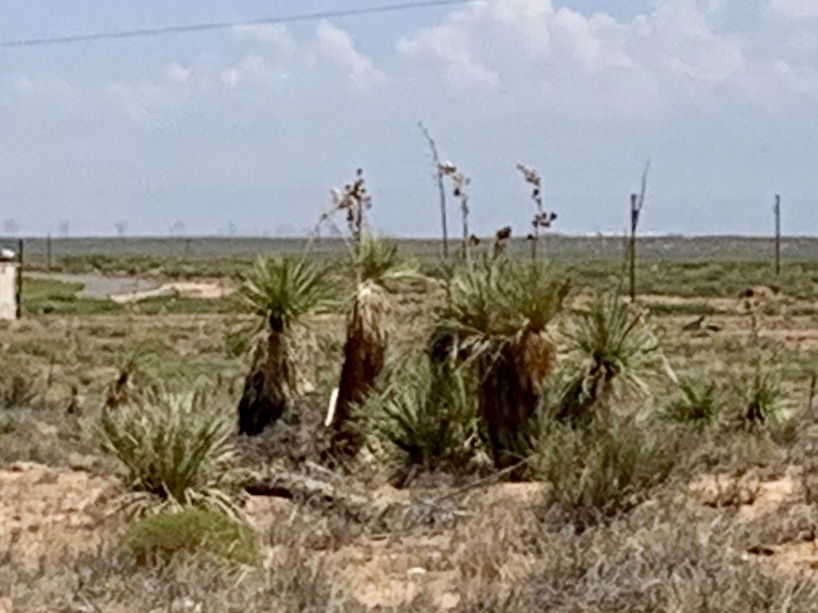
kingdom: Plantae
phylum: Tracheophyta
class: Liliopsida
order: Asparagales
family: Asparagaceae
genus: Yucca
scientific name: Yucca elata
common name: Palmella
